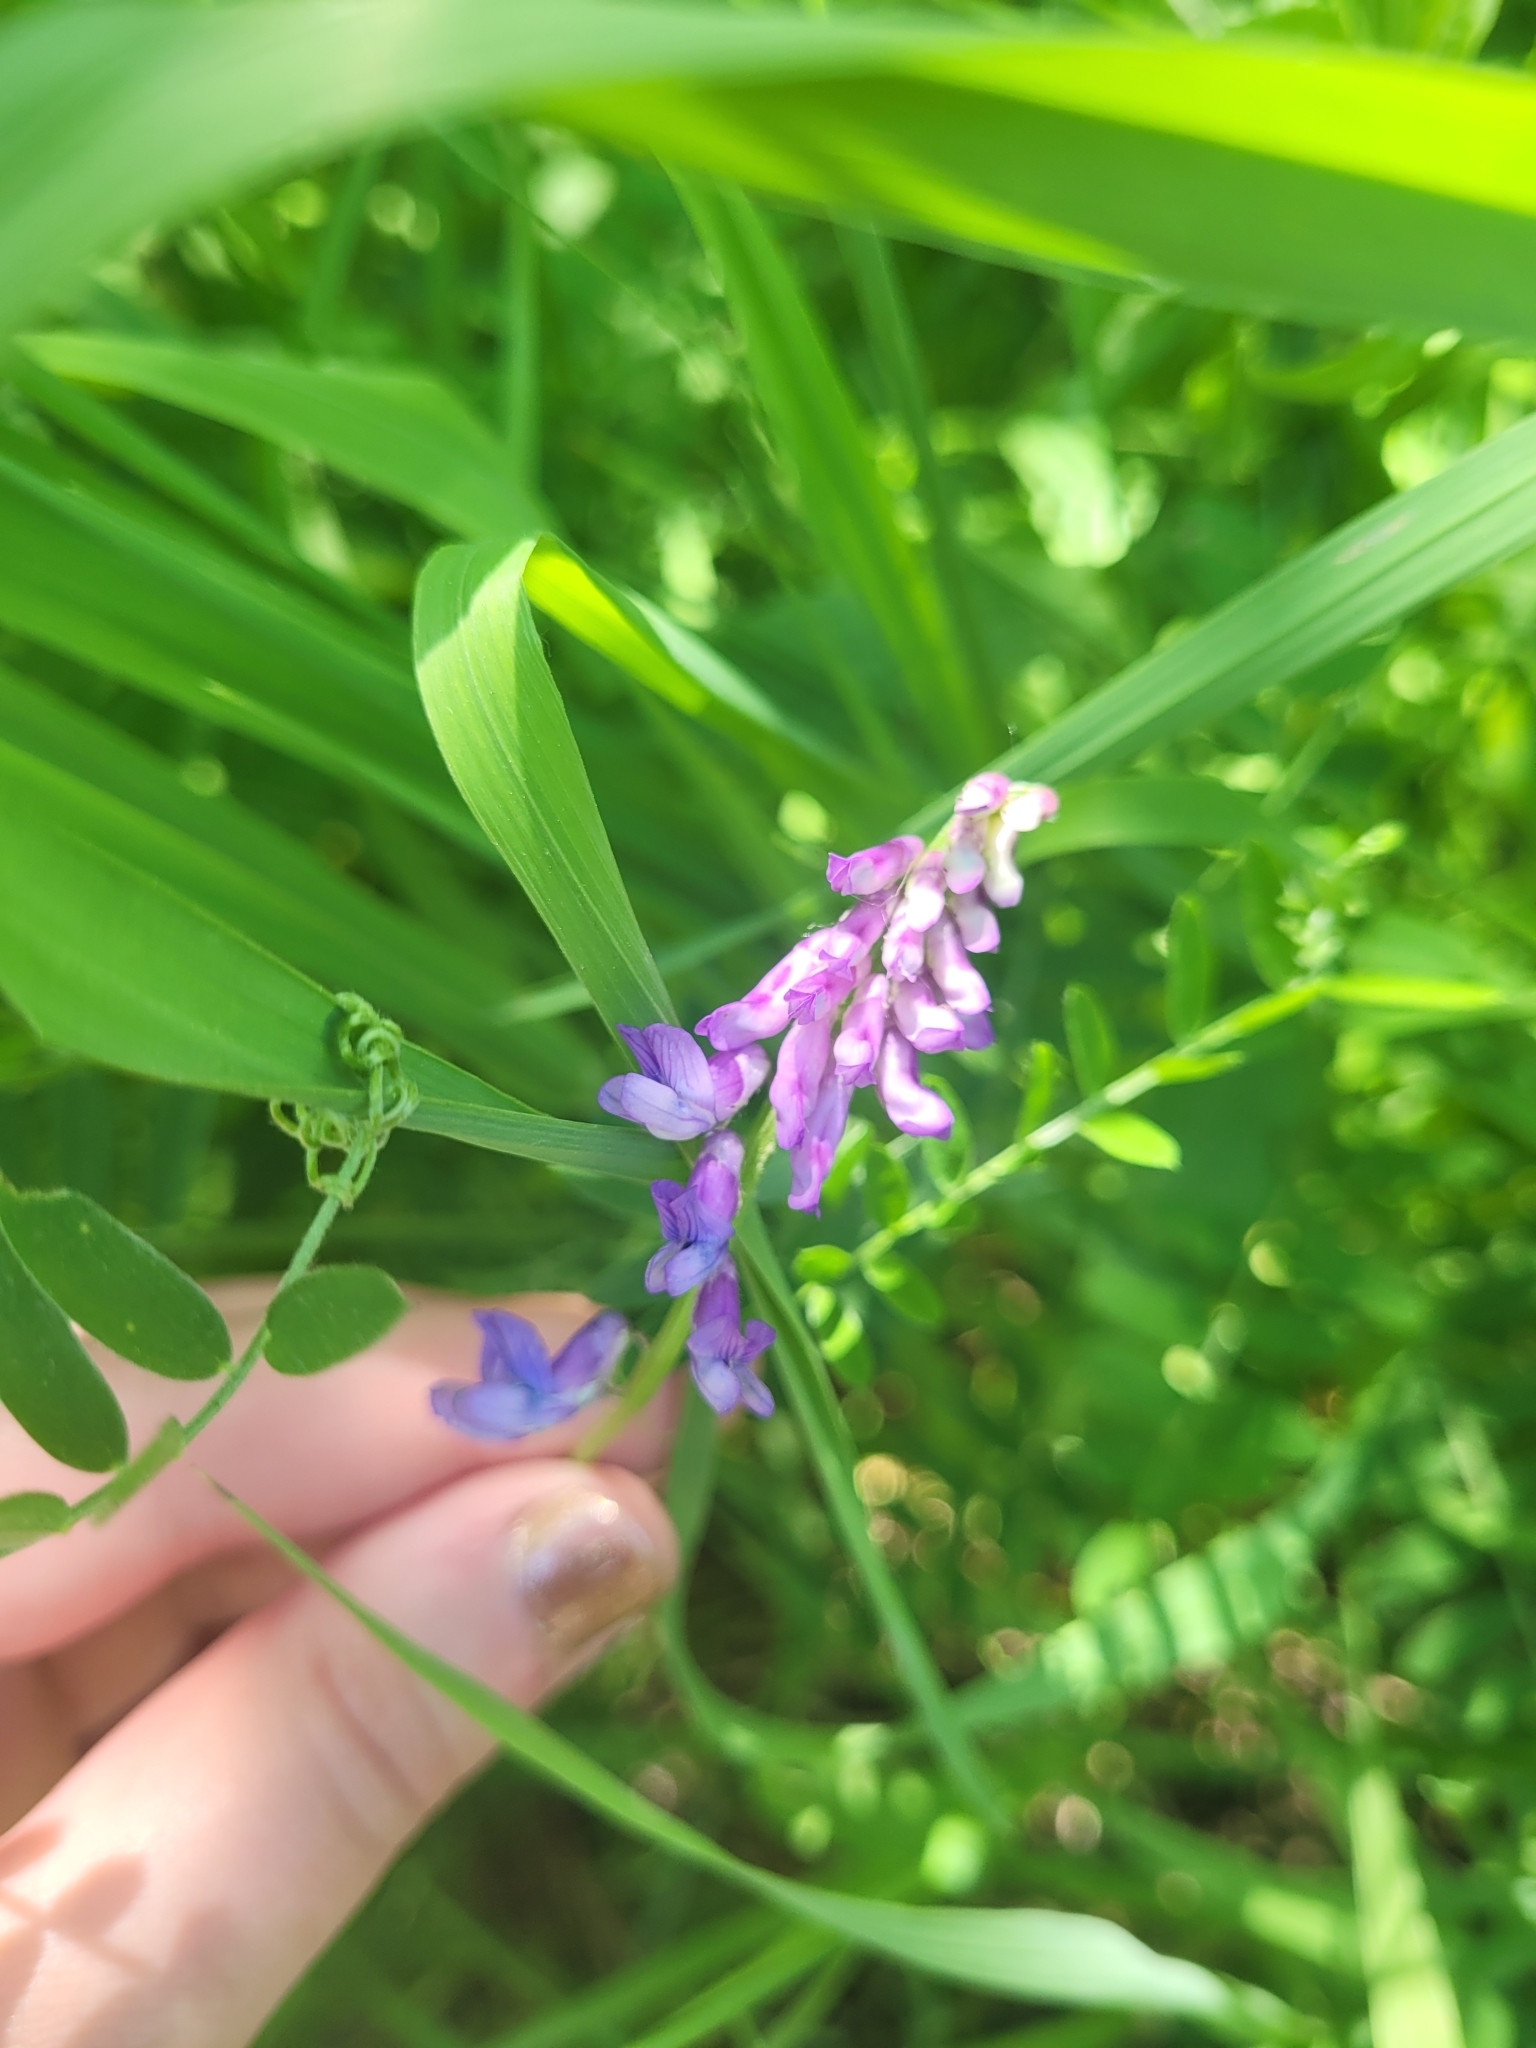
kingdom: Plantae
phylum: Tracheophyta
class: Magnoliopsida
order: Fabales
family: Fabaceae
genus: Vicia
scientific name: Vicia cracca
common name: Bird vetch
